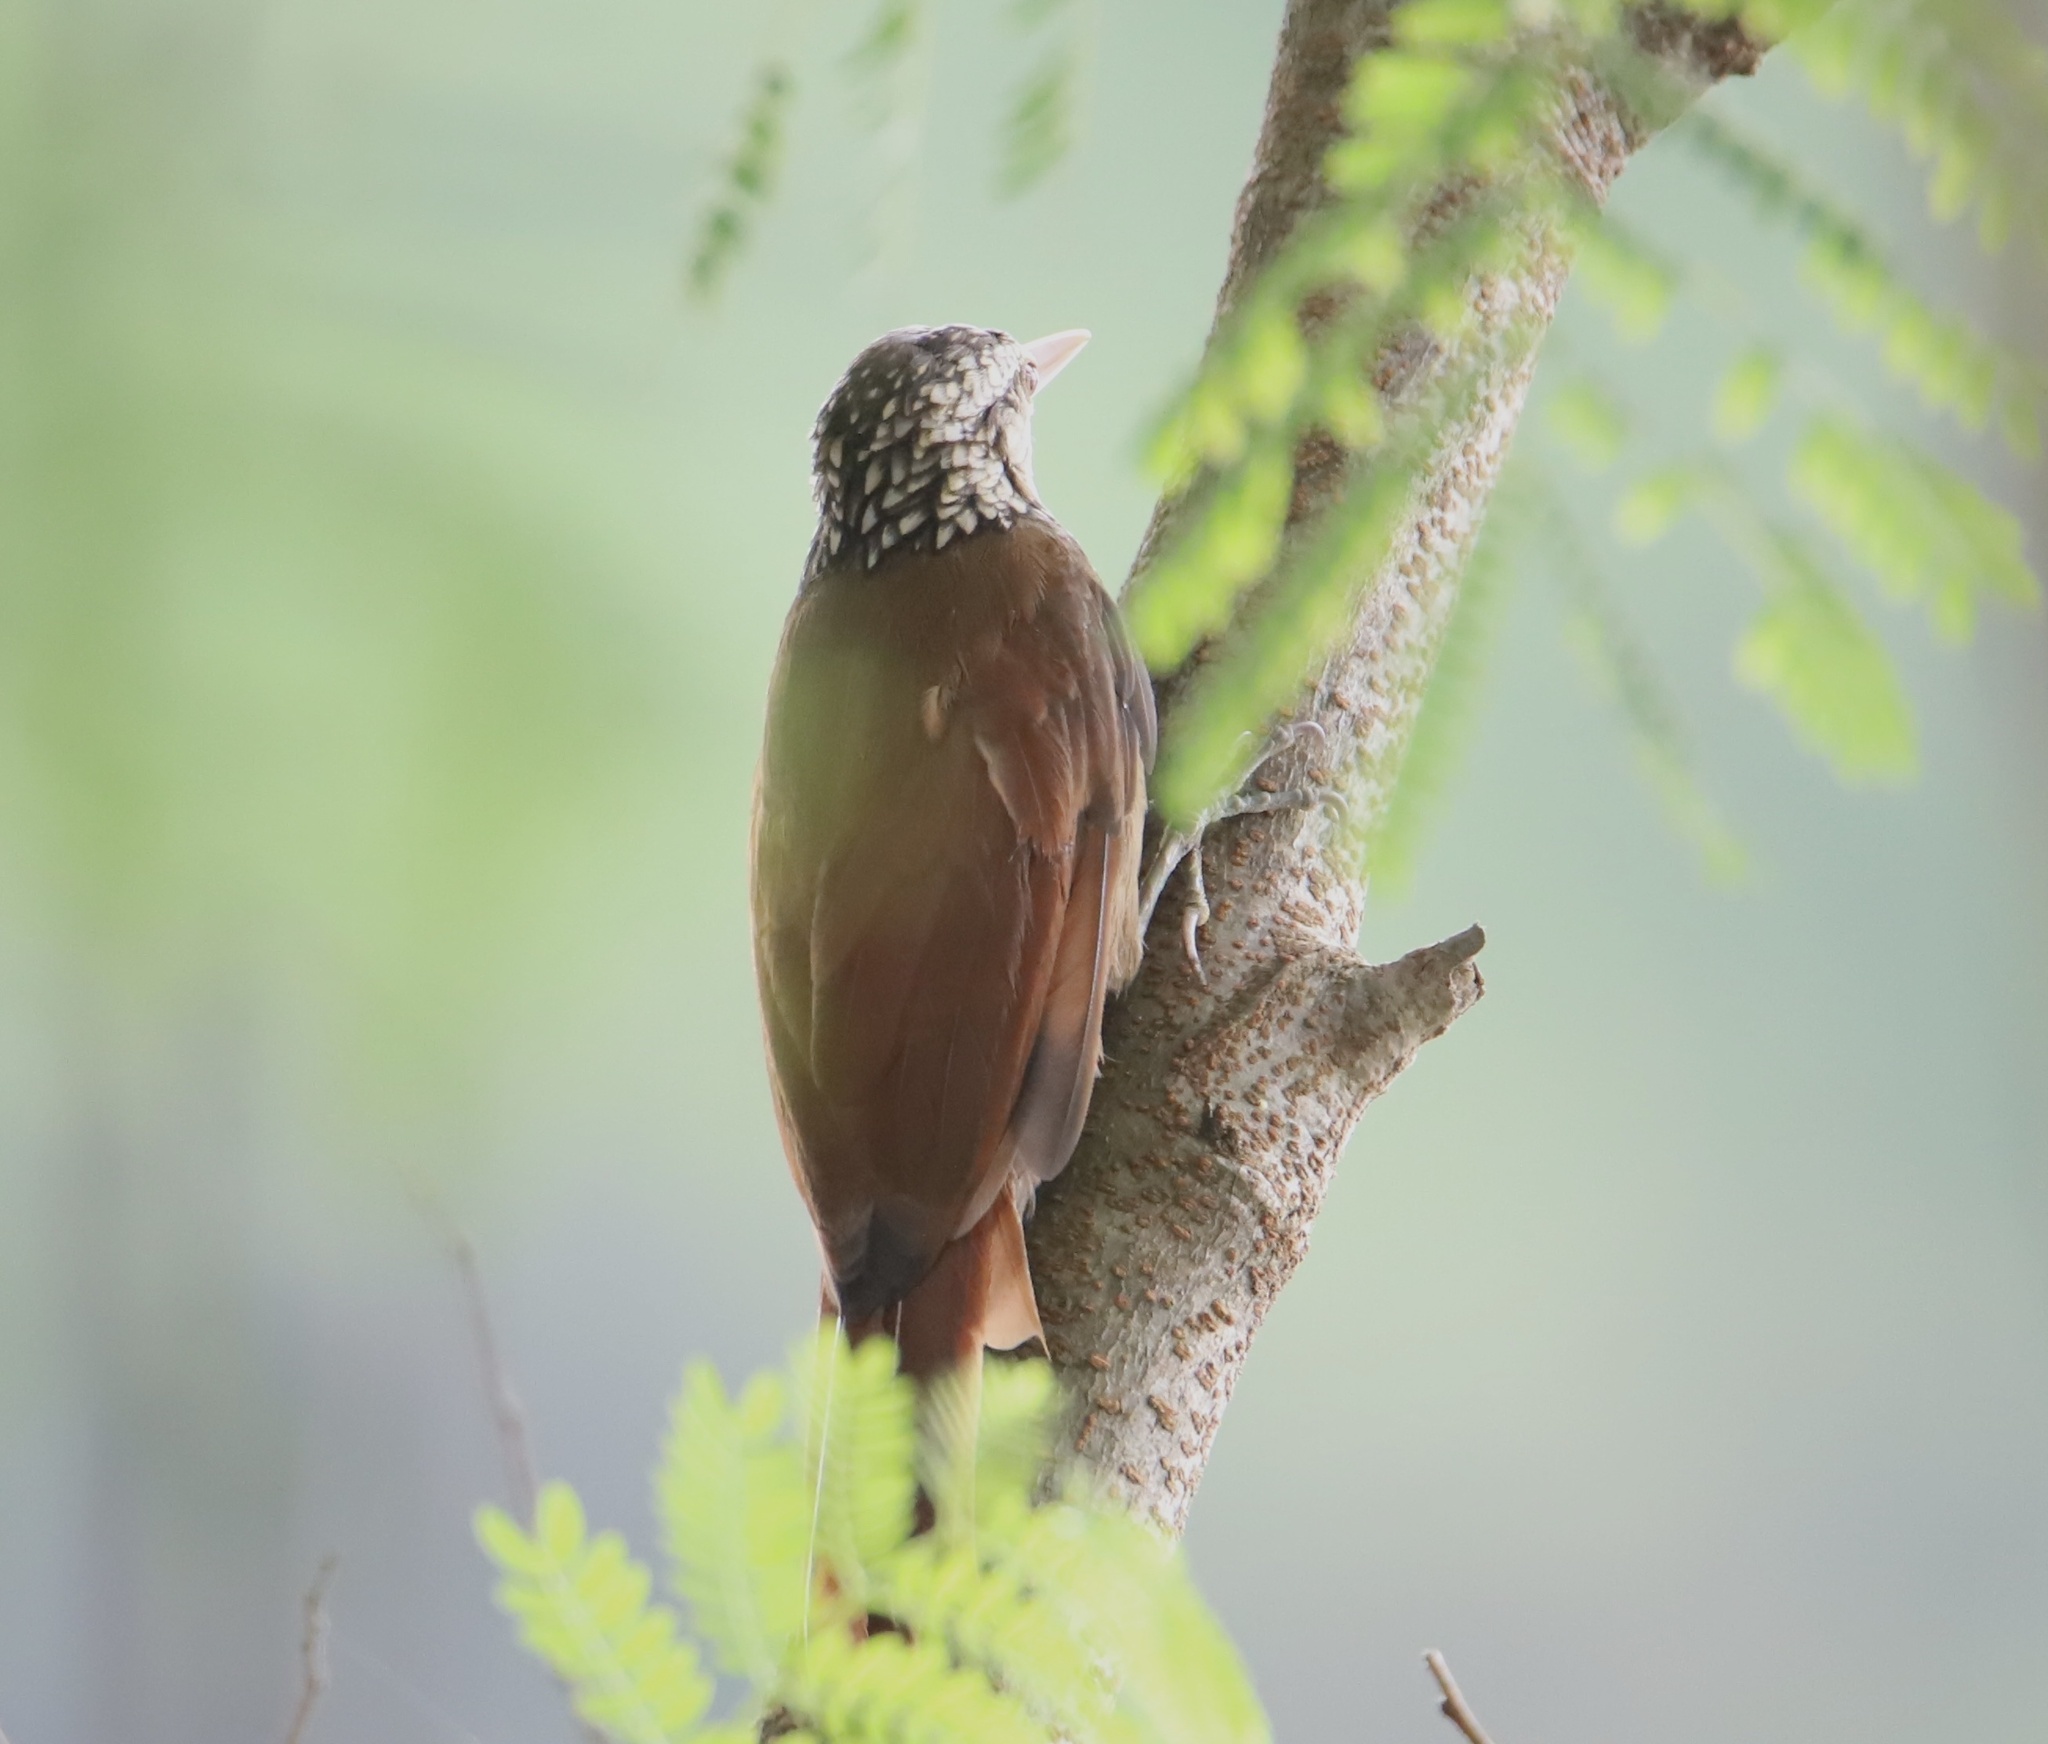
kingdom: Animalia
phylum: Chordata
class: Aves
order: Passeriformes
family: Furnariidae
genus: Xiphorhynchus
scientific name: Xiphorhynchus picus
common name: Straight-billed woodcreeper
